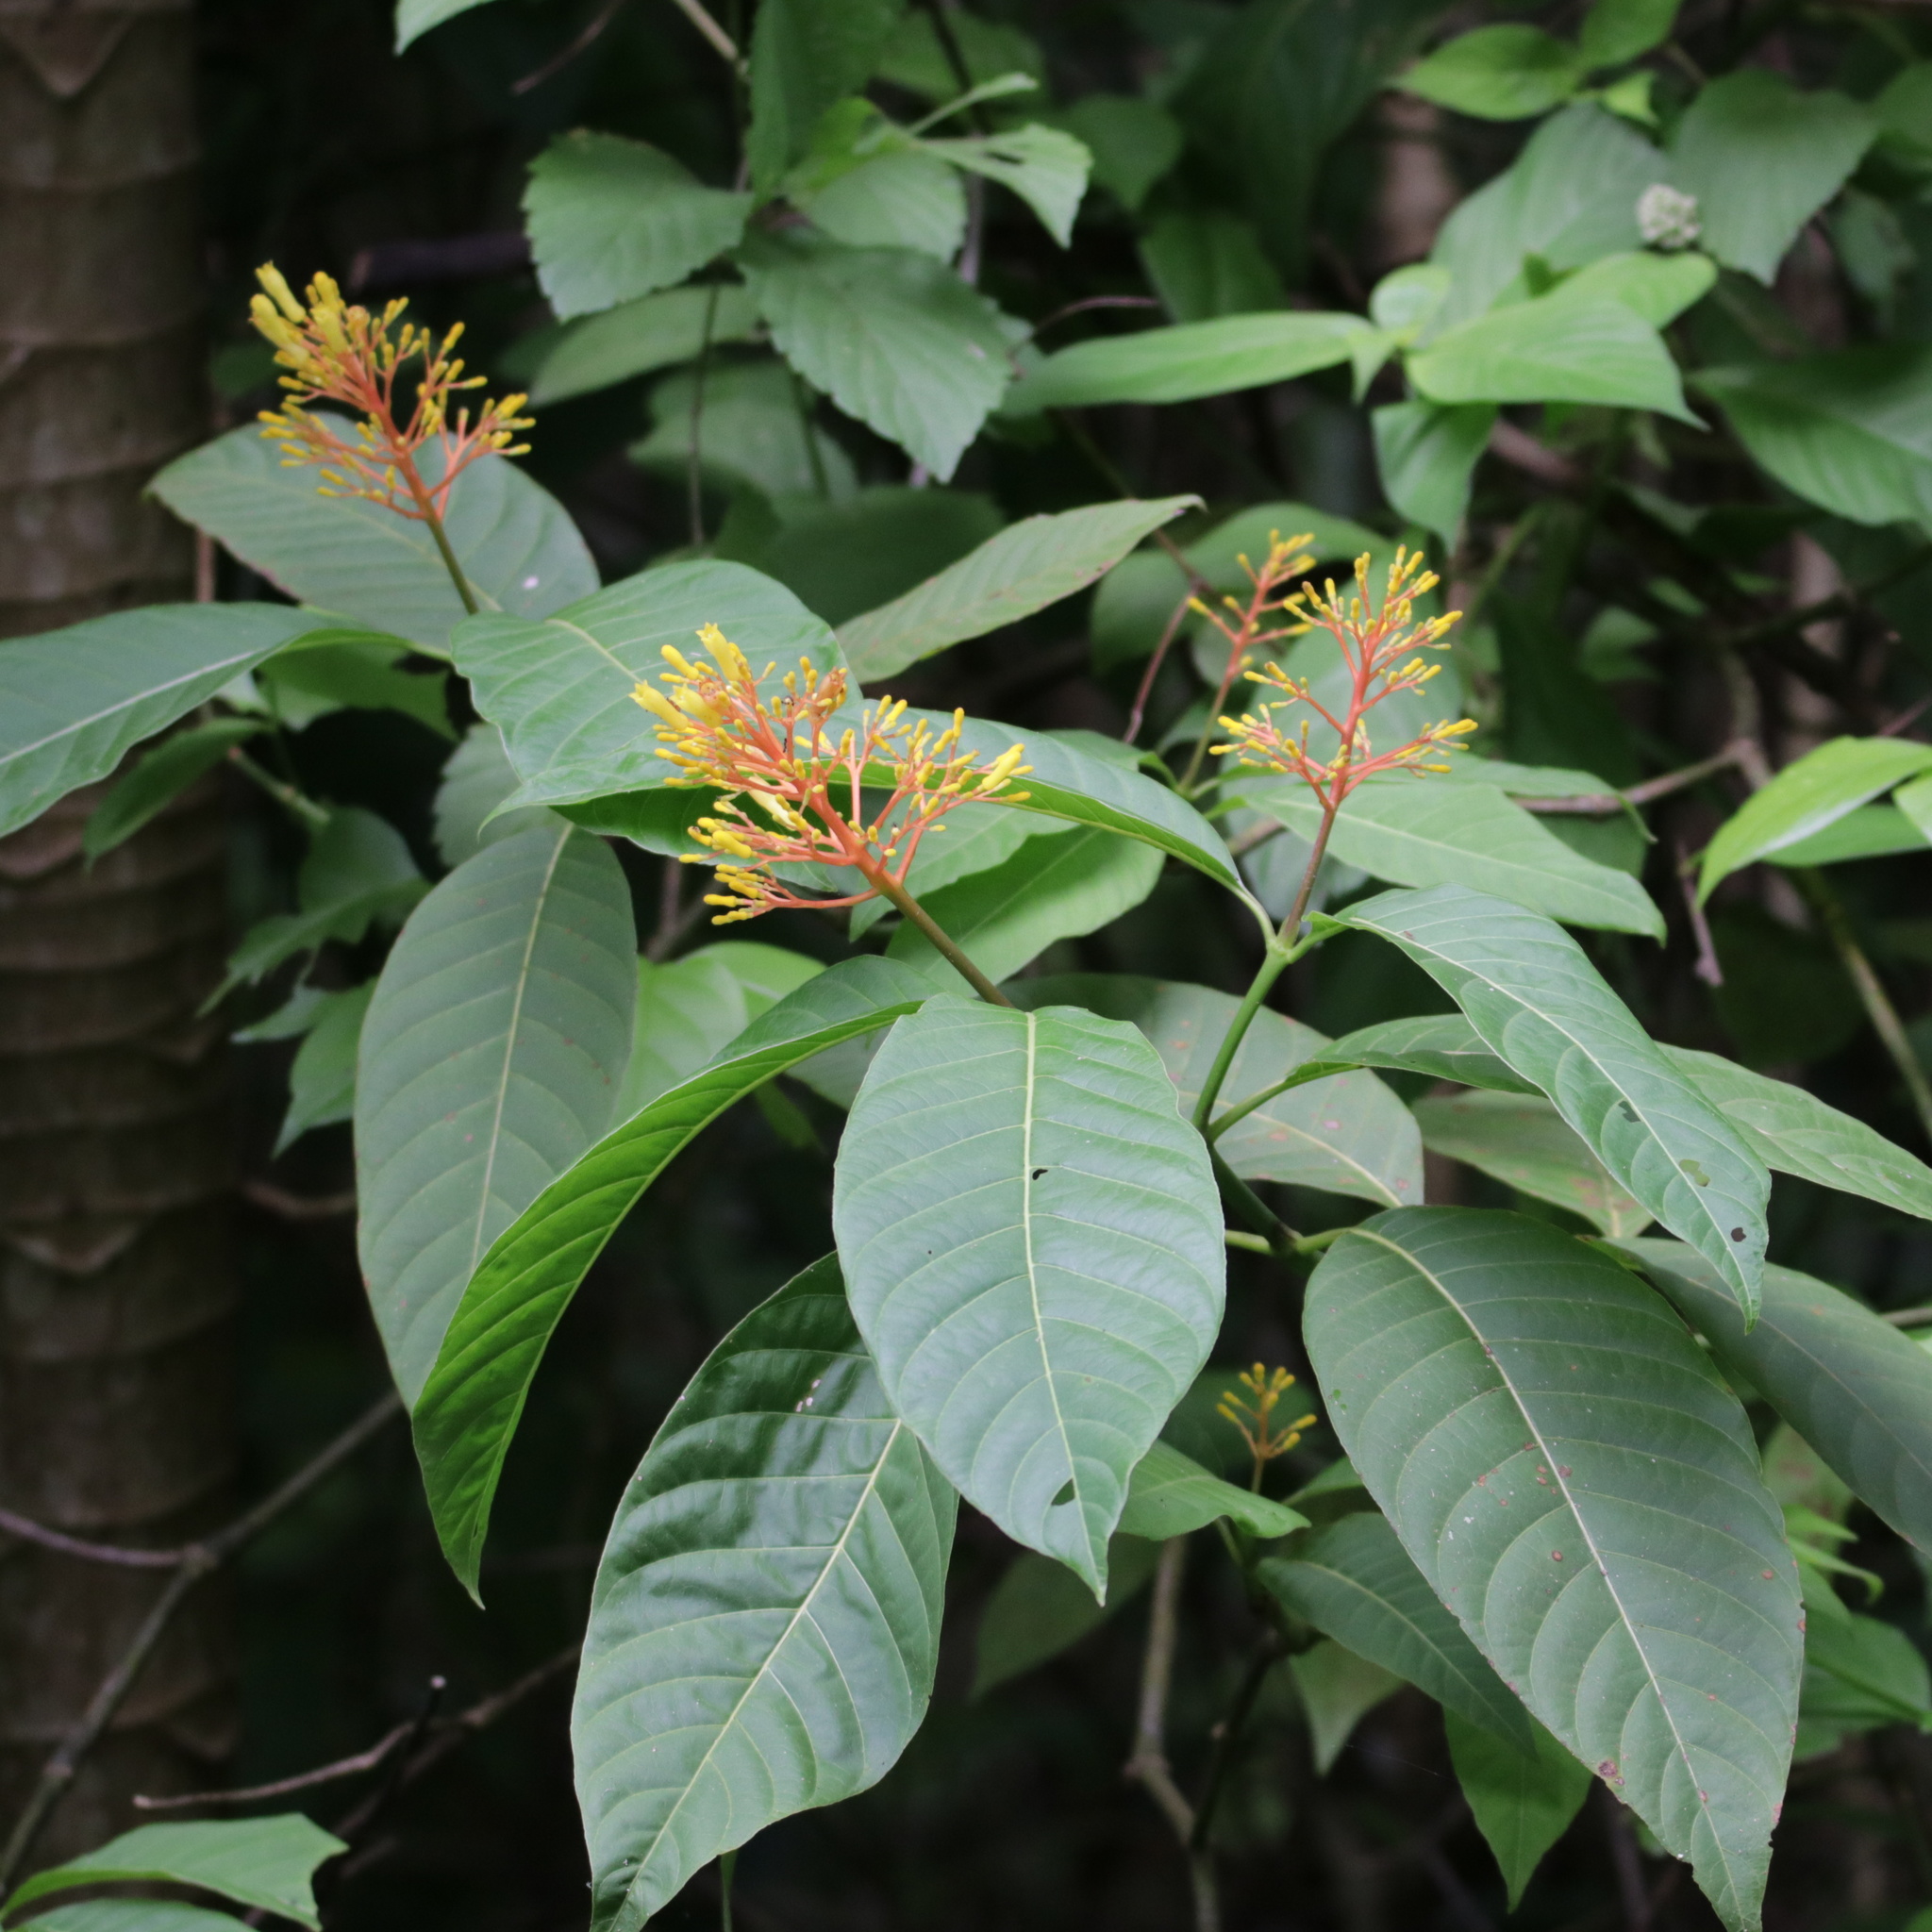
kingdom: Plantae
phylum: Tracheophyta
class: Magnoliopsida
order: Gentianales
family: Rubiaceae
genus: Palicourea
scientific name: Palicourea guianensis
